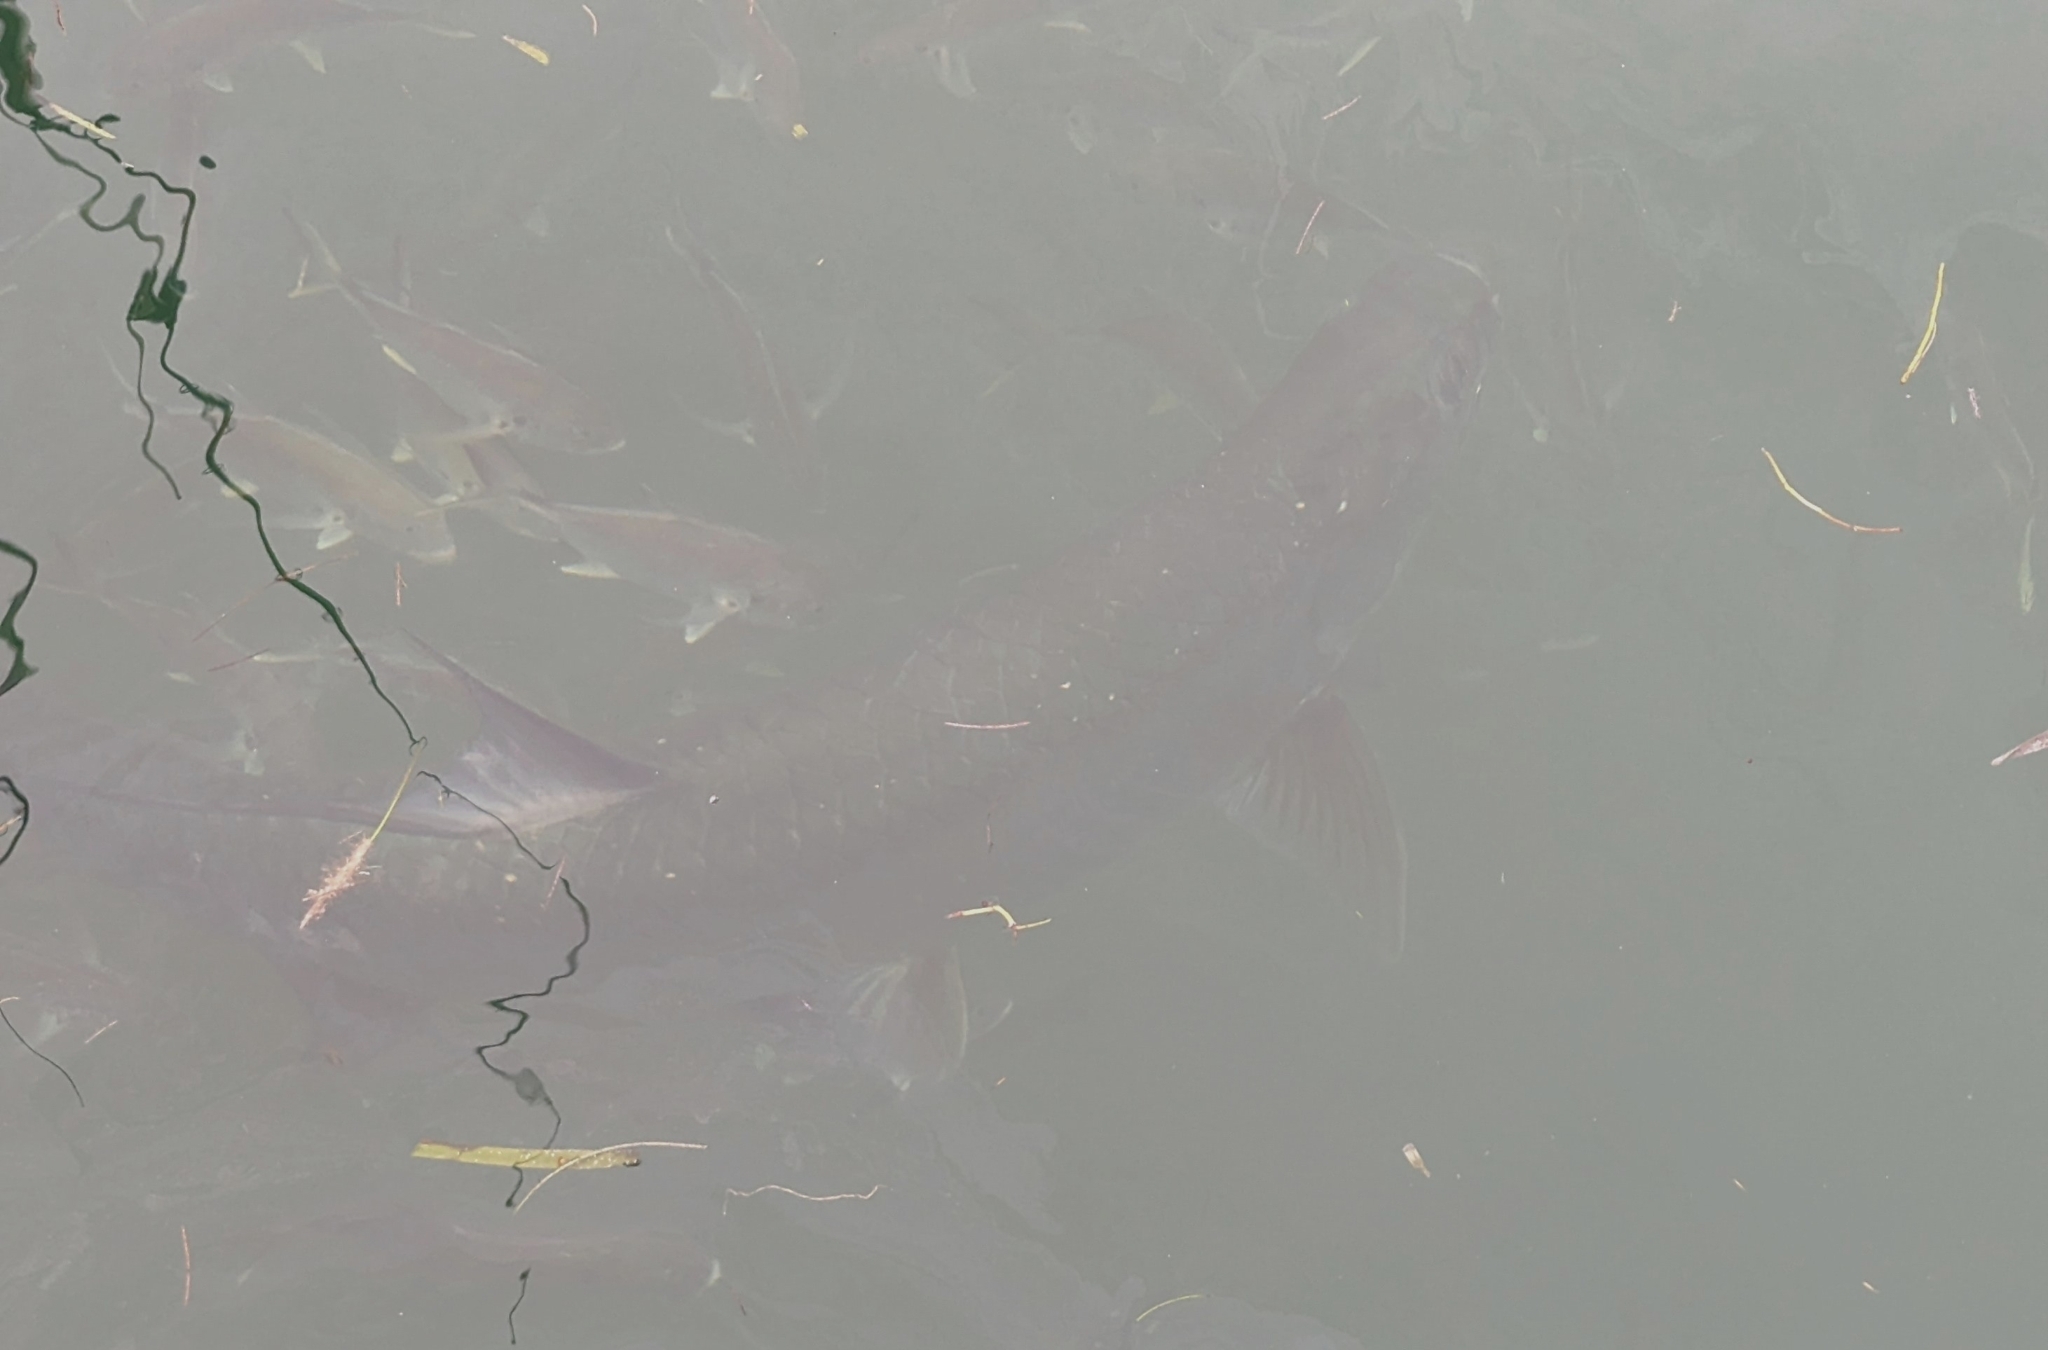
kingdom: Animalia
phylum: Chordata
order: Elopiformes
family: Megalopidae
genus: Megalops
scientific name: Megalops atlanticus
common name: Tarpon
